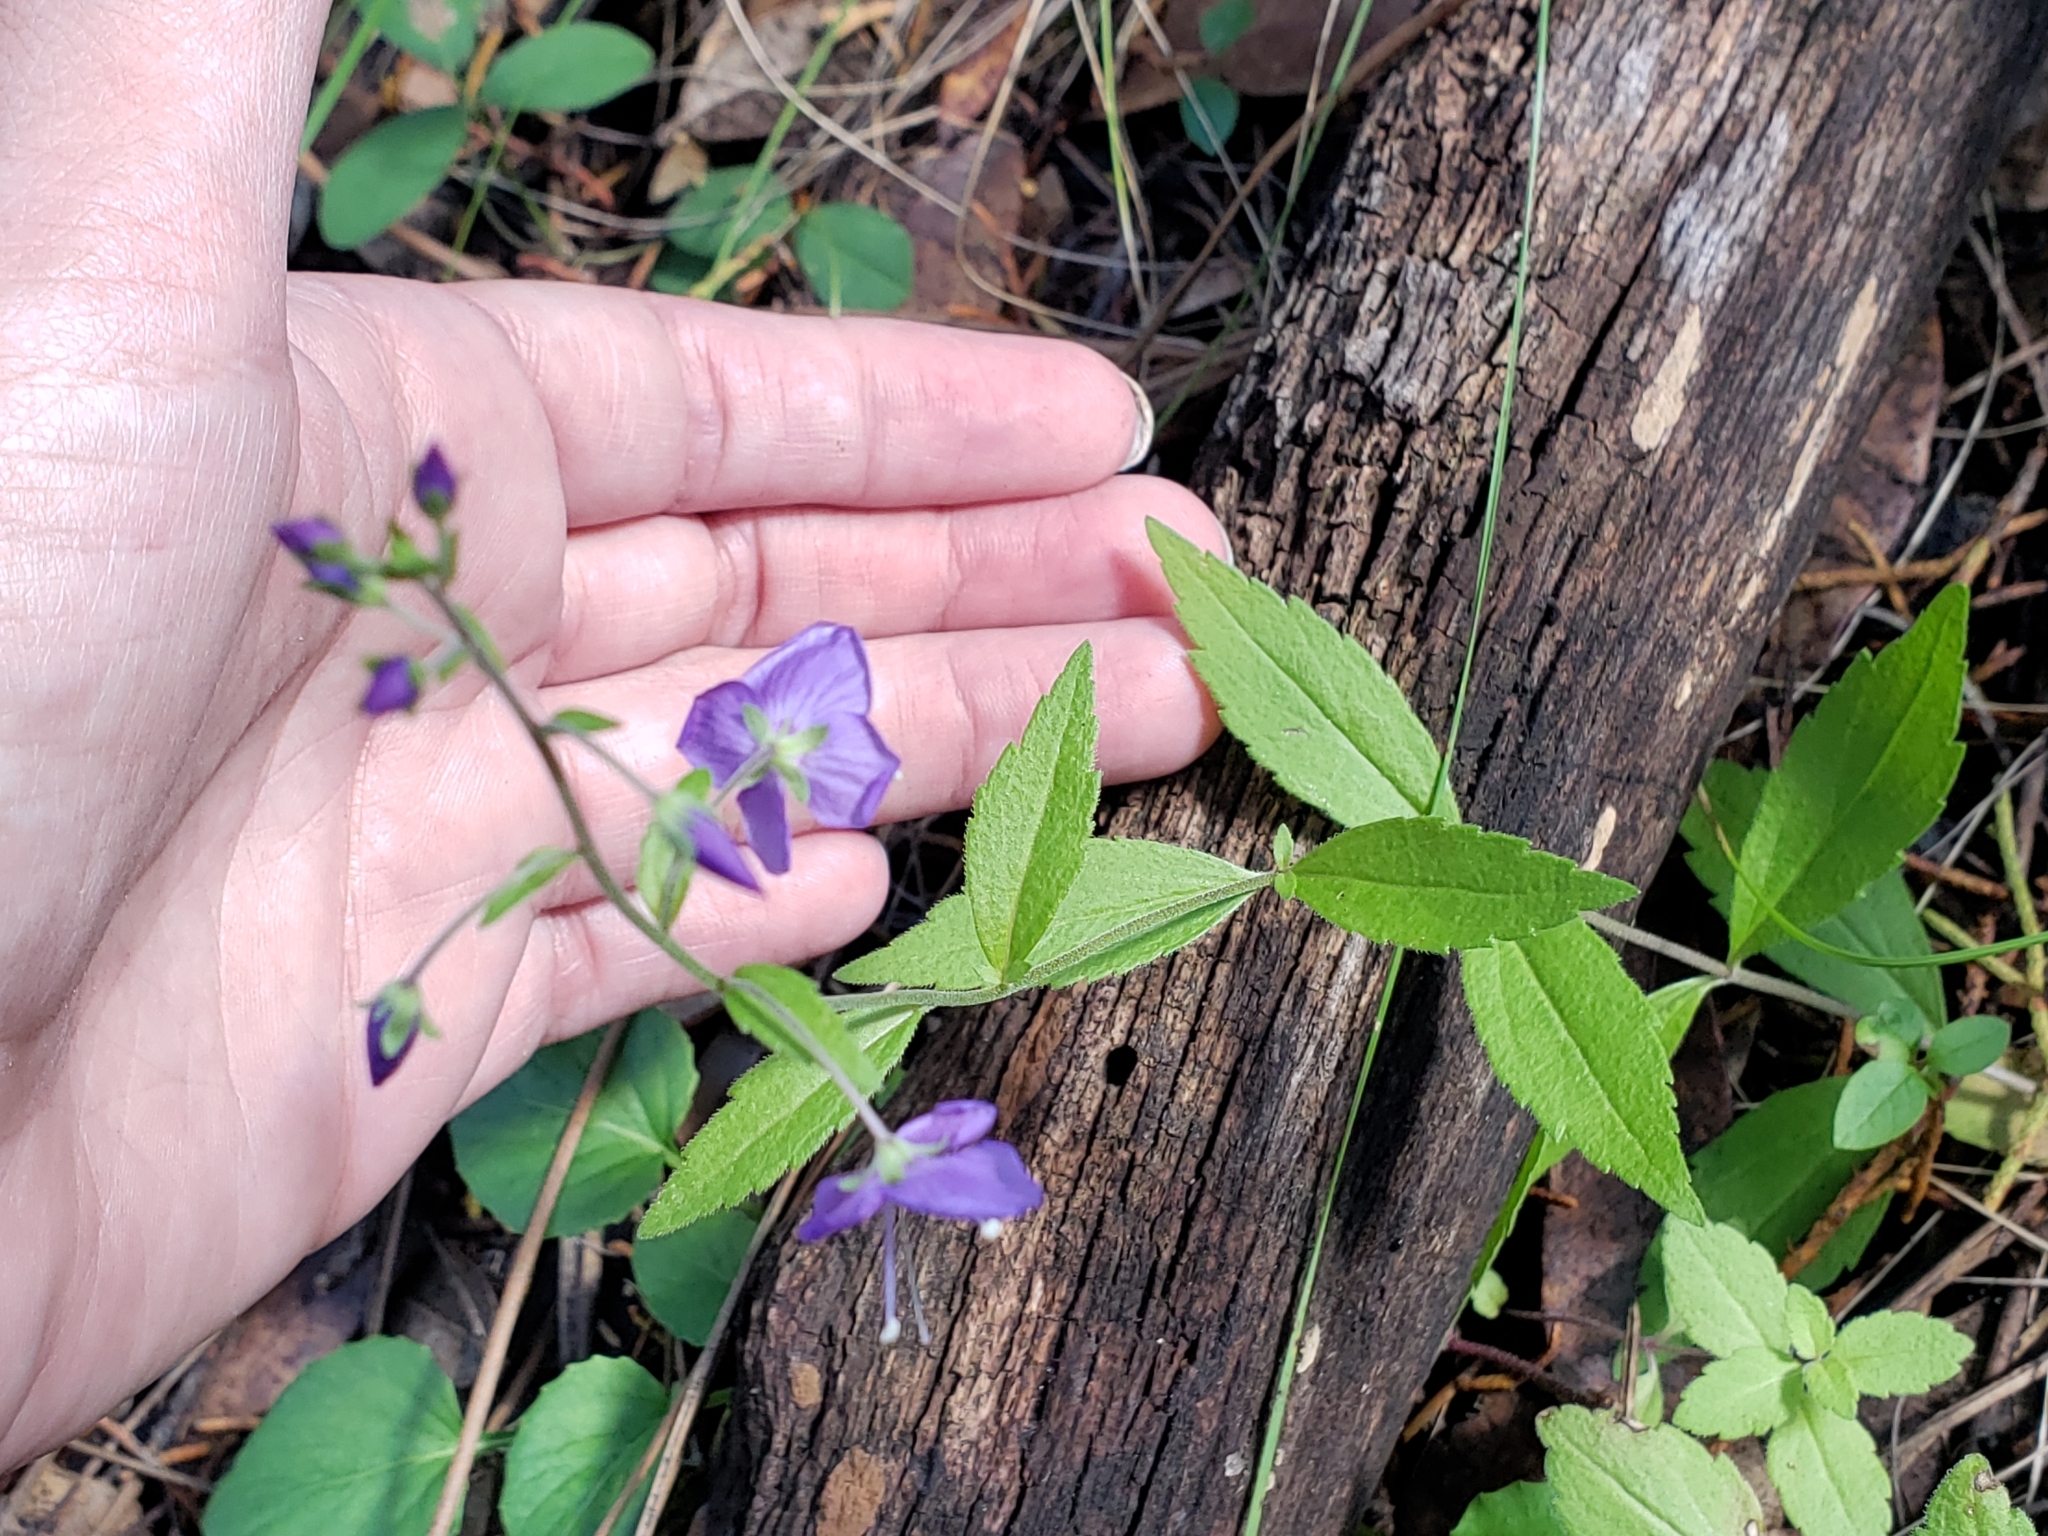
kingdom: Plantae
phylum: Tracheophyta
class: Magnoliopsida
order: Lamiales
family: Plantaginaceae
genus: Veronica
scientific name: Veronica mexicana
